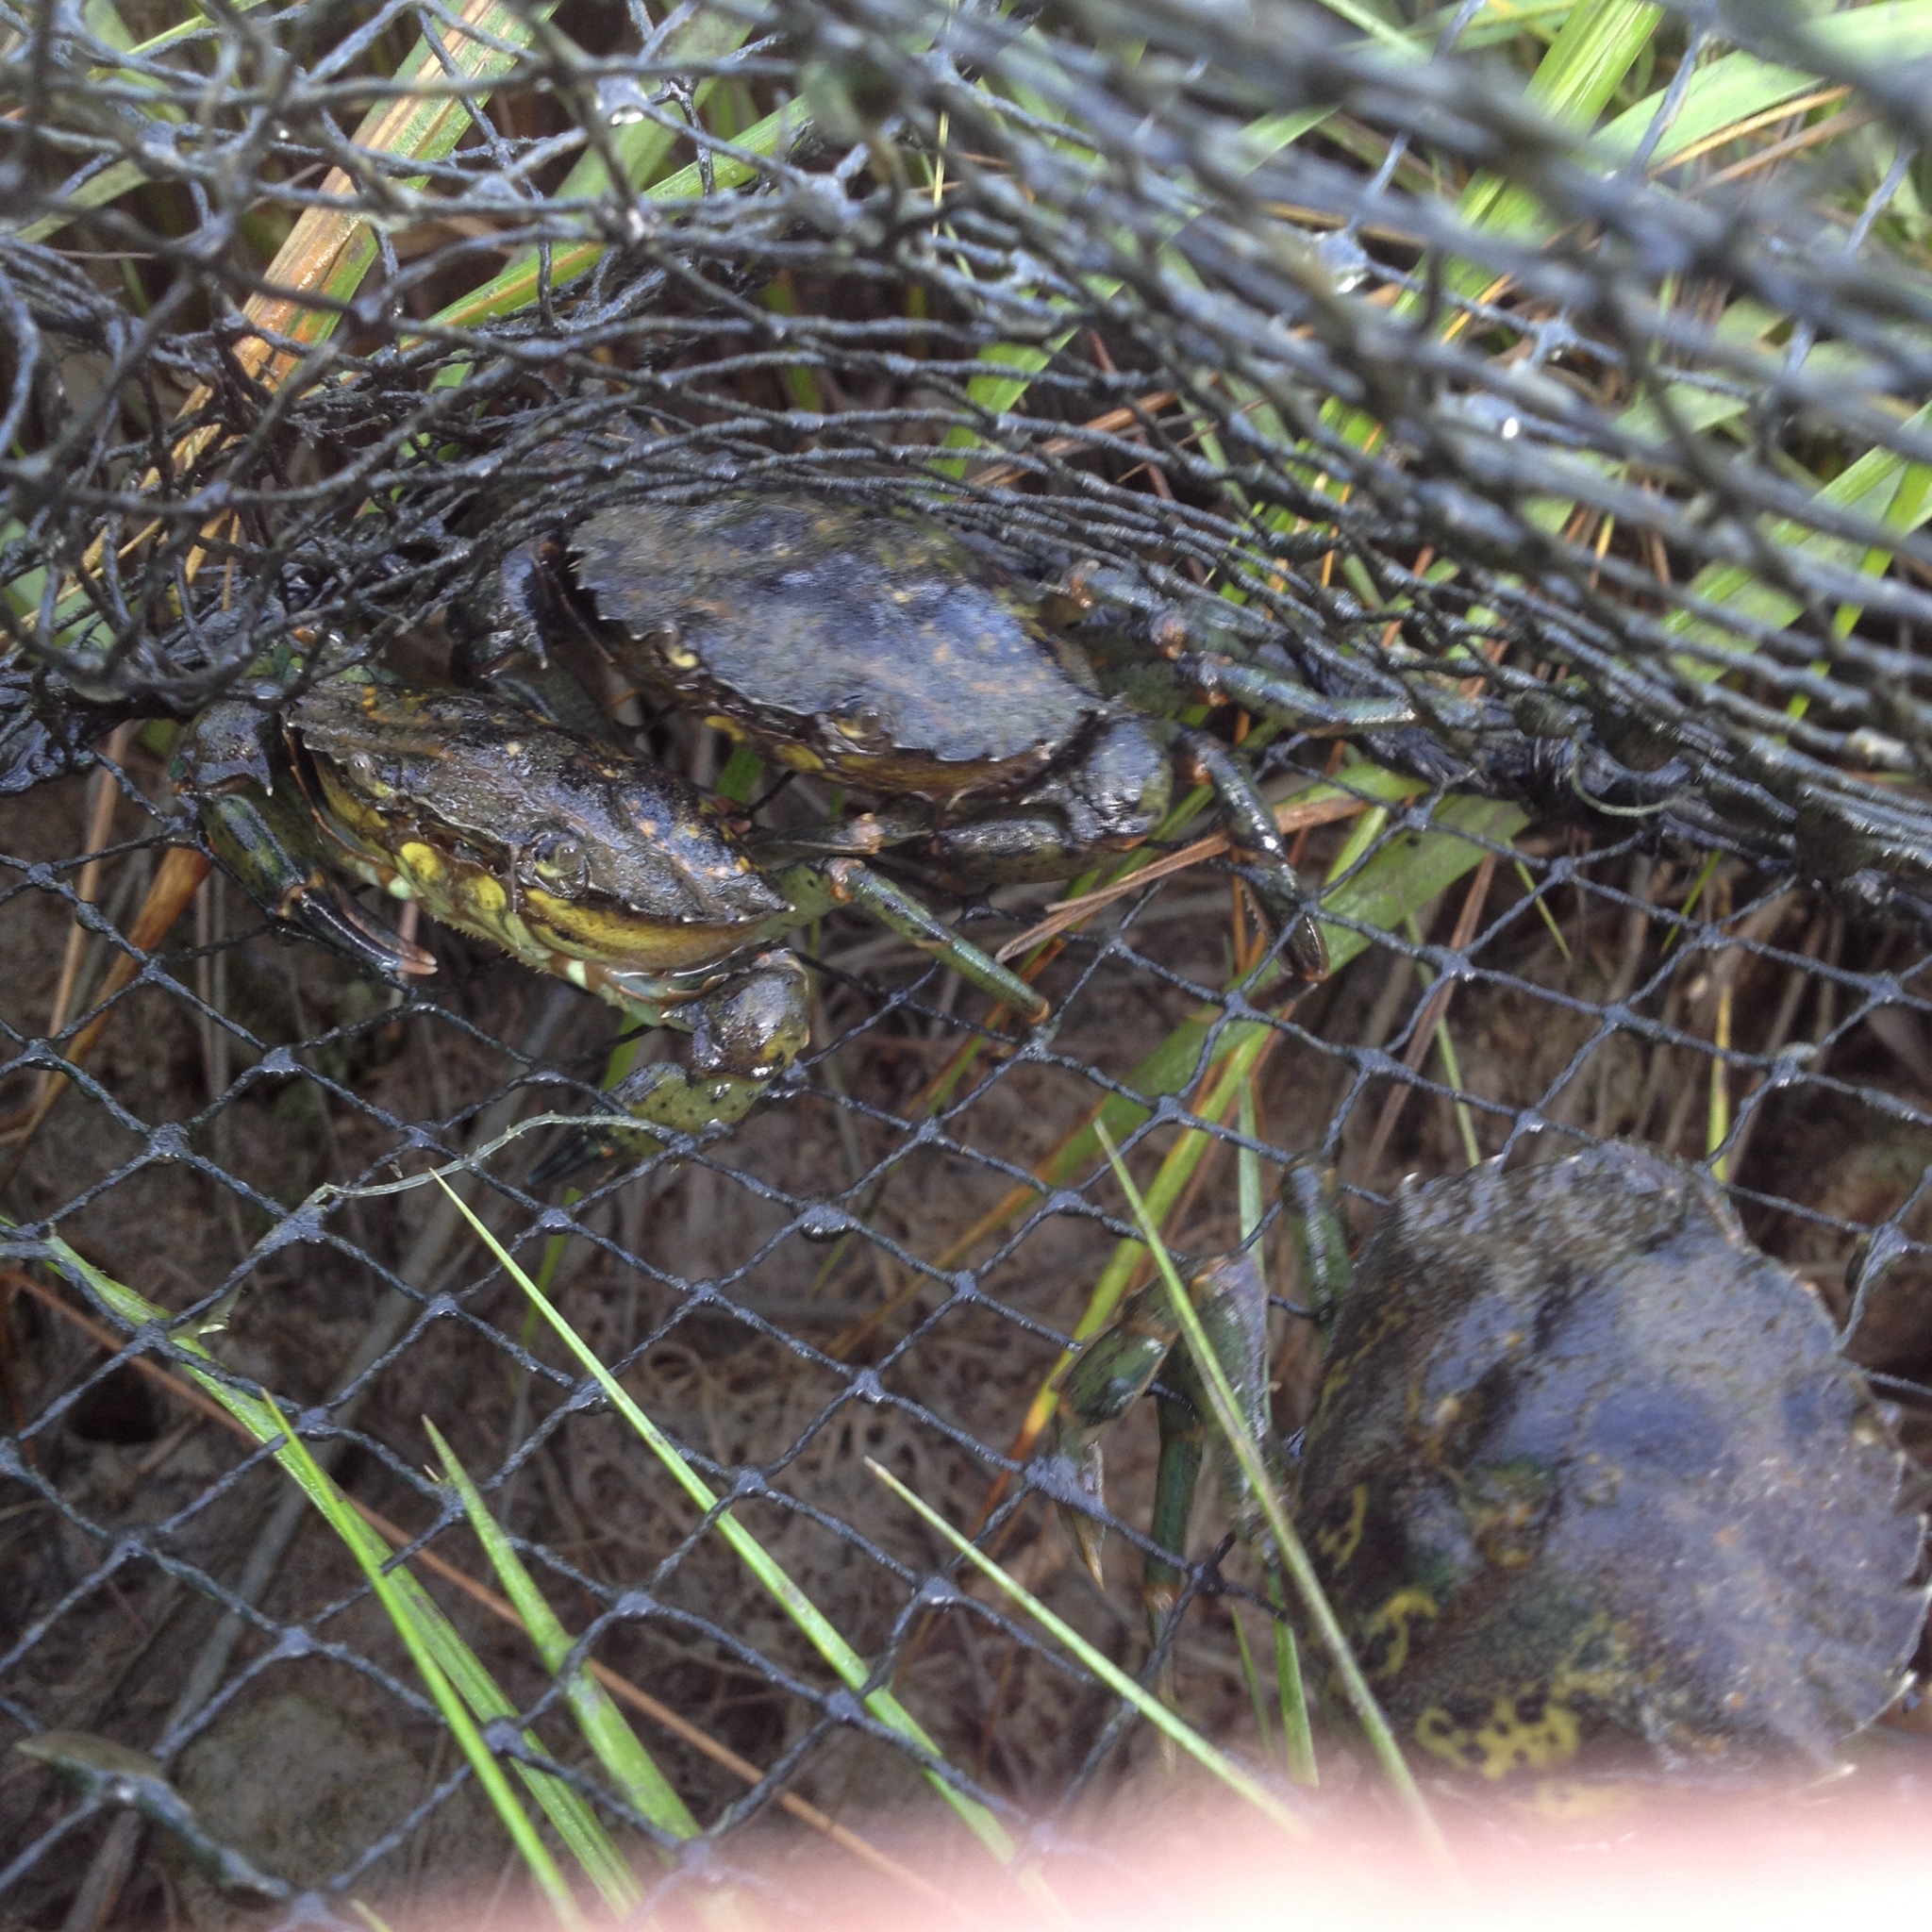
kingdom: Animalia
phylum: Arthropoda
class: Malacostraca
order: Decapoda
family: Carcinidae
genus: Carcinus
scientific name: Carcinus maenas
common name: European green crab
